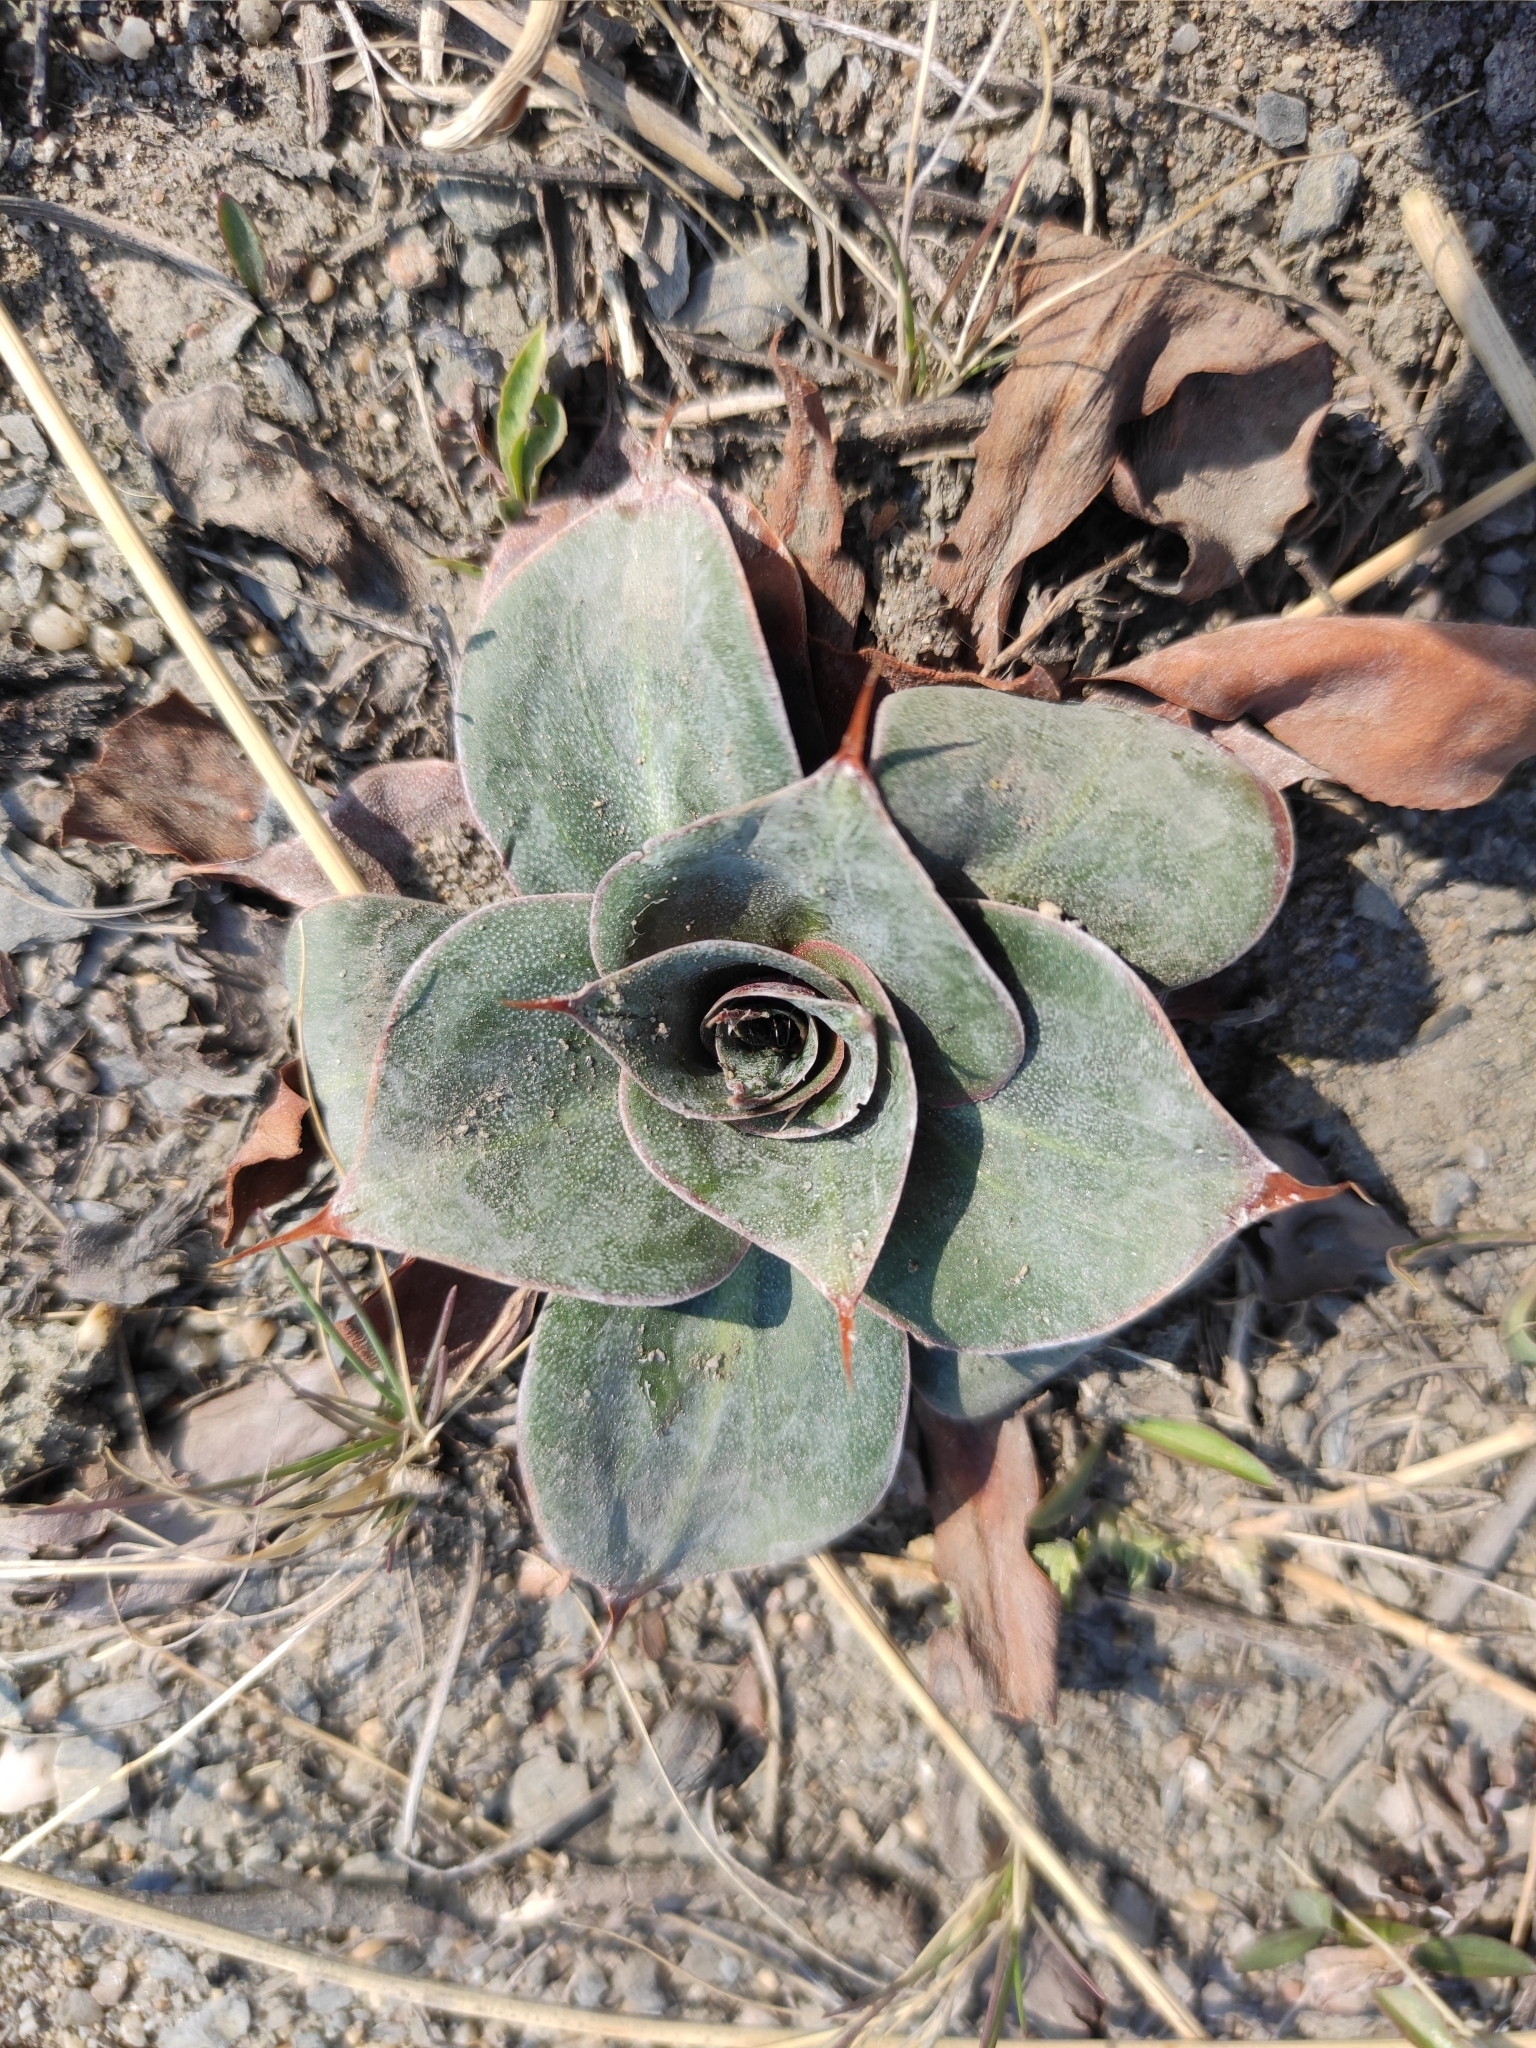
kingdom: Plantae
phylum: Tracheophyta
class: Magnoliopsida
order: Caryophyllales
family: Plumbaginaceae
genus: Goniolimon
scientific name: Goniolimon speciosum
